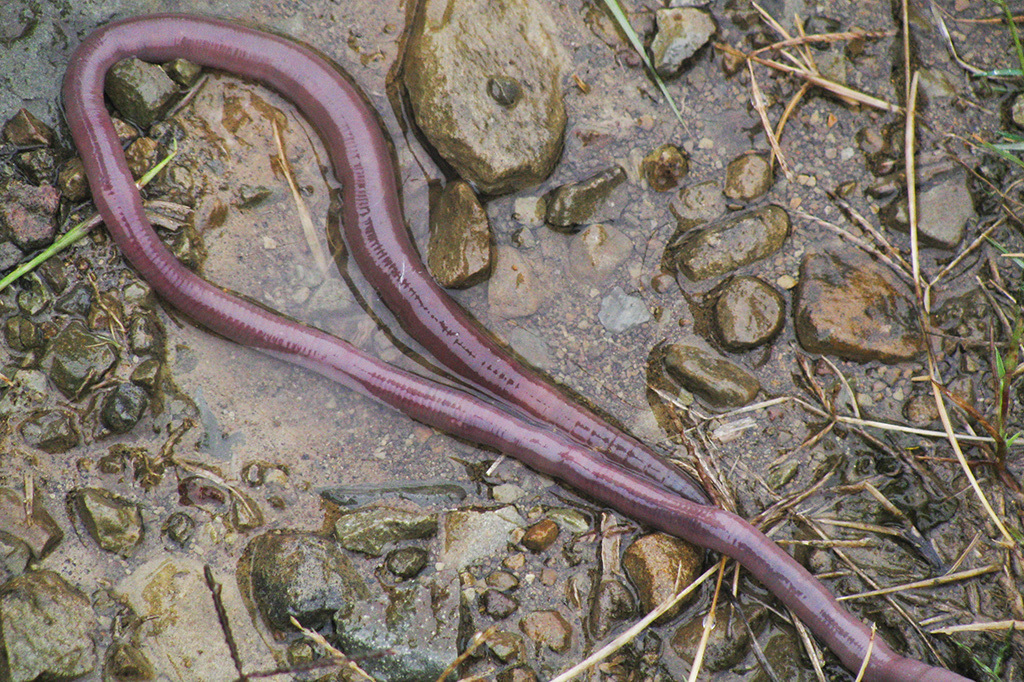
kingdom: Animalia
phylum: Annelida
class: Clitellata
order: Crassiclitellata
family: Microchaetidae
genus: Microchaetus
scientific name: Microchaetus stuckenbergi
